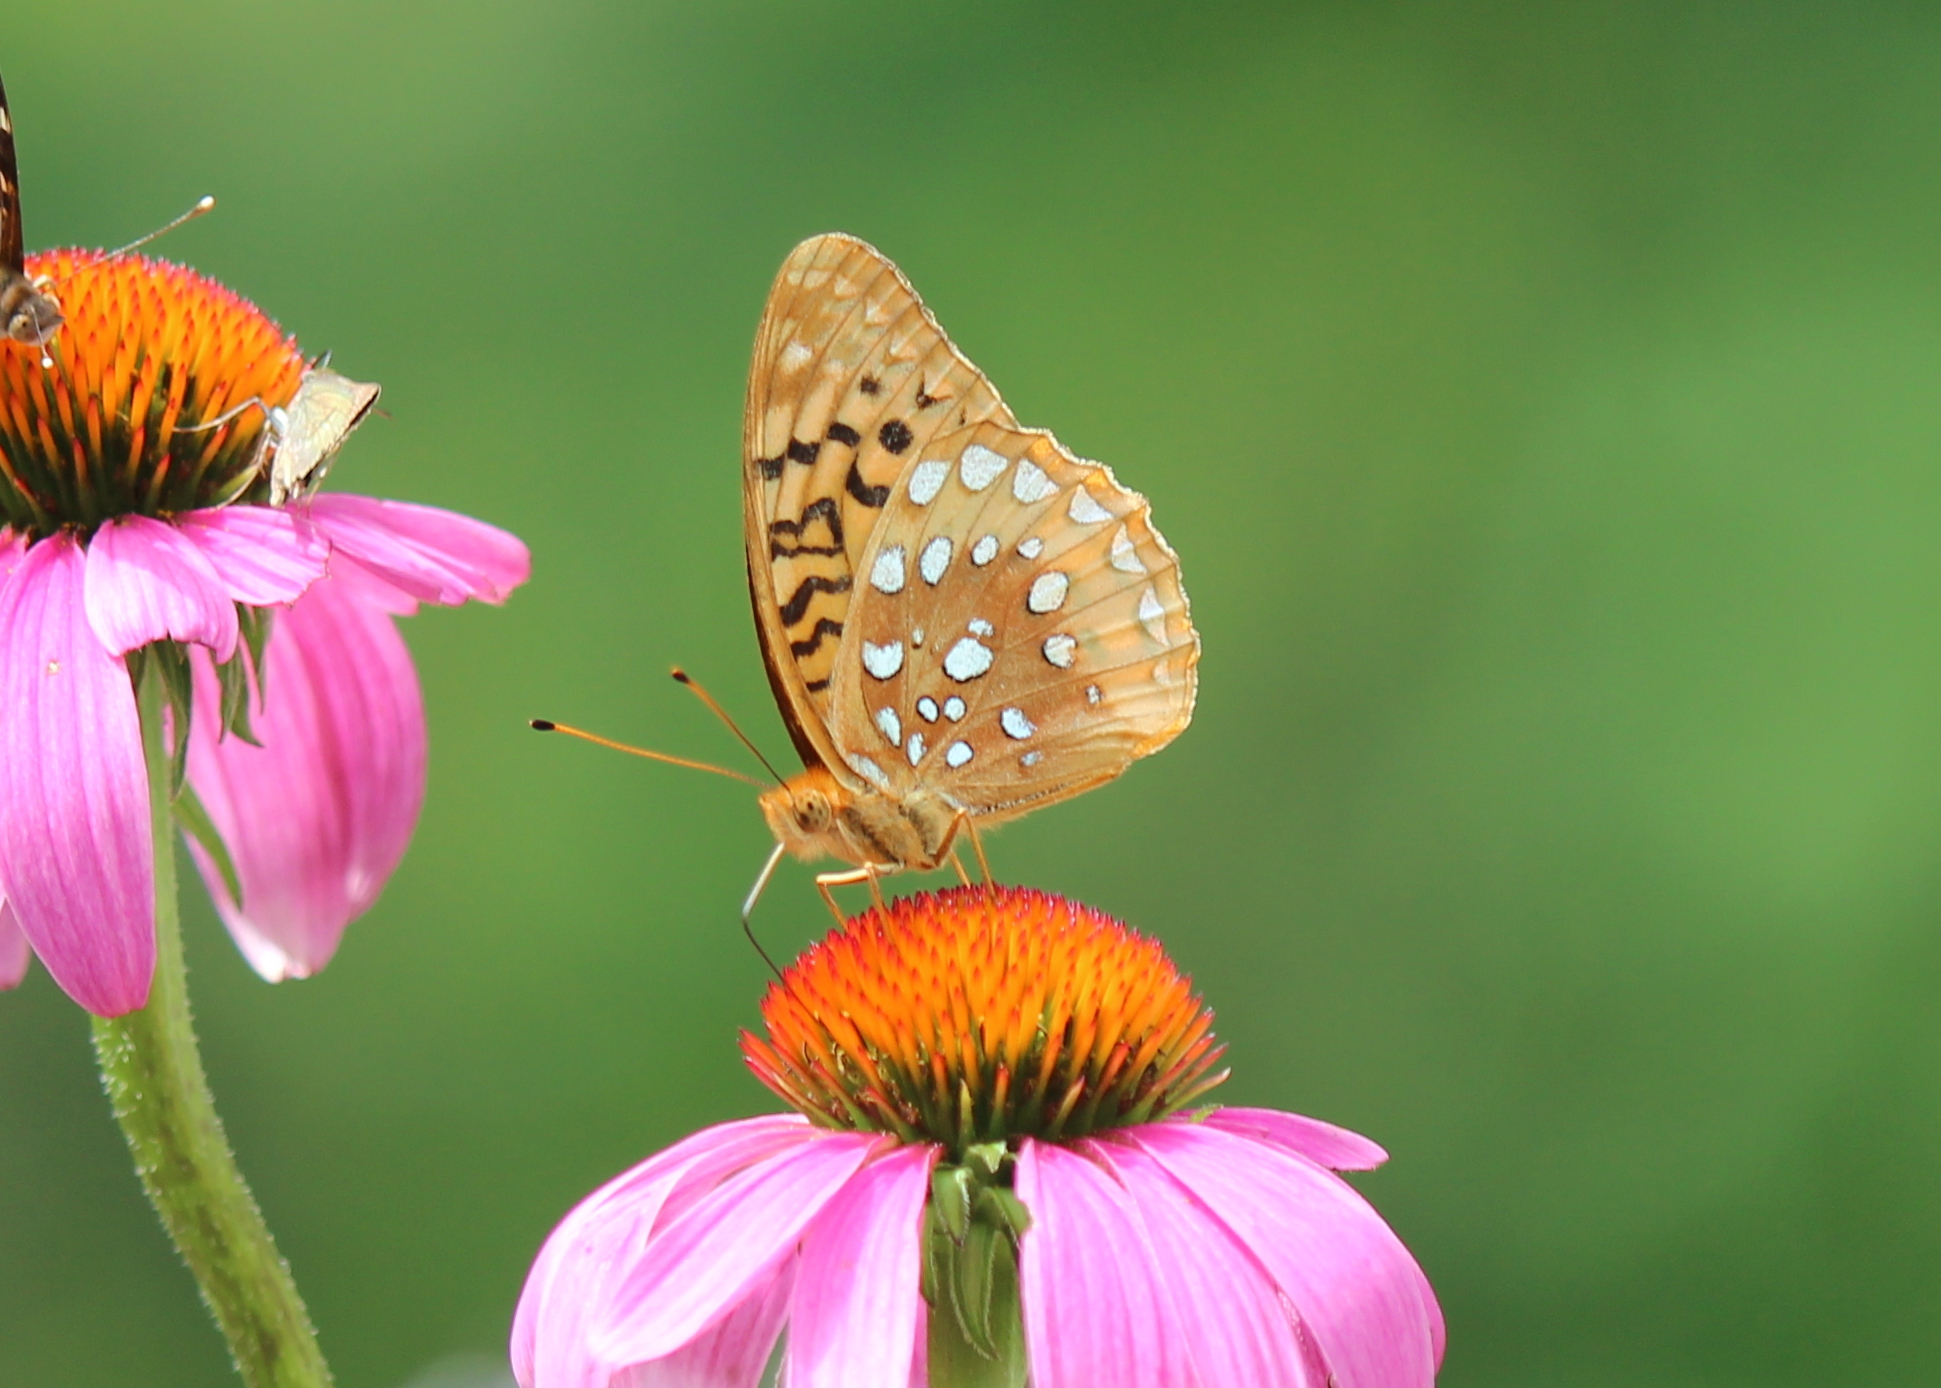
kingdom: Animalia
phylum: Arthropoda
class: Insecta
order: Lepidoptera
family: Nymphalidae
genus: Speyeria
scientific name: Speyeria cybele
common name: Great spangled fritillary
